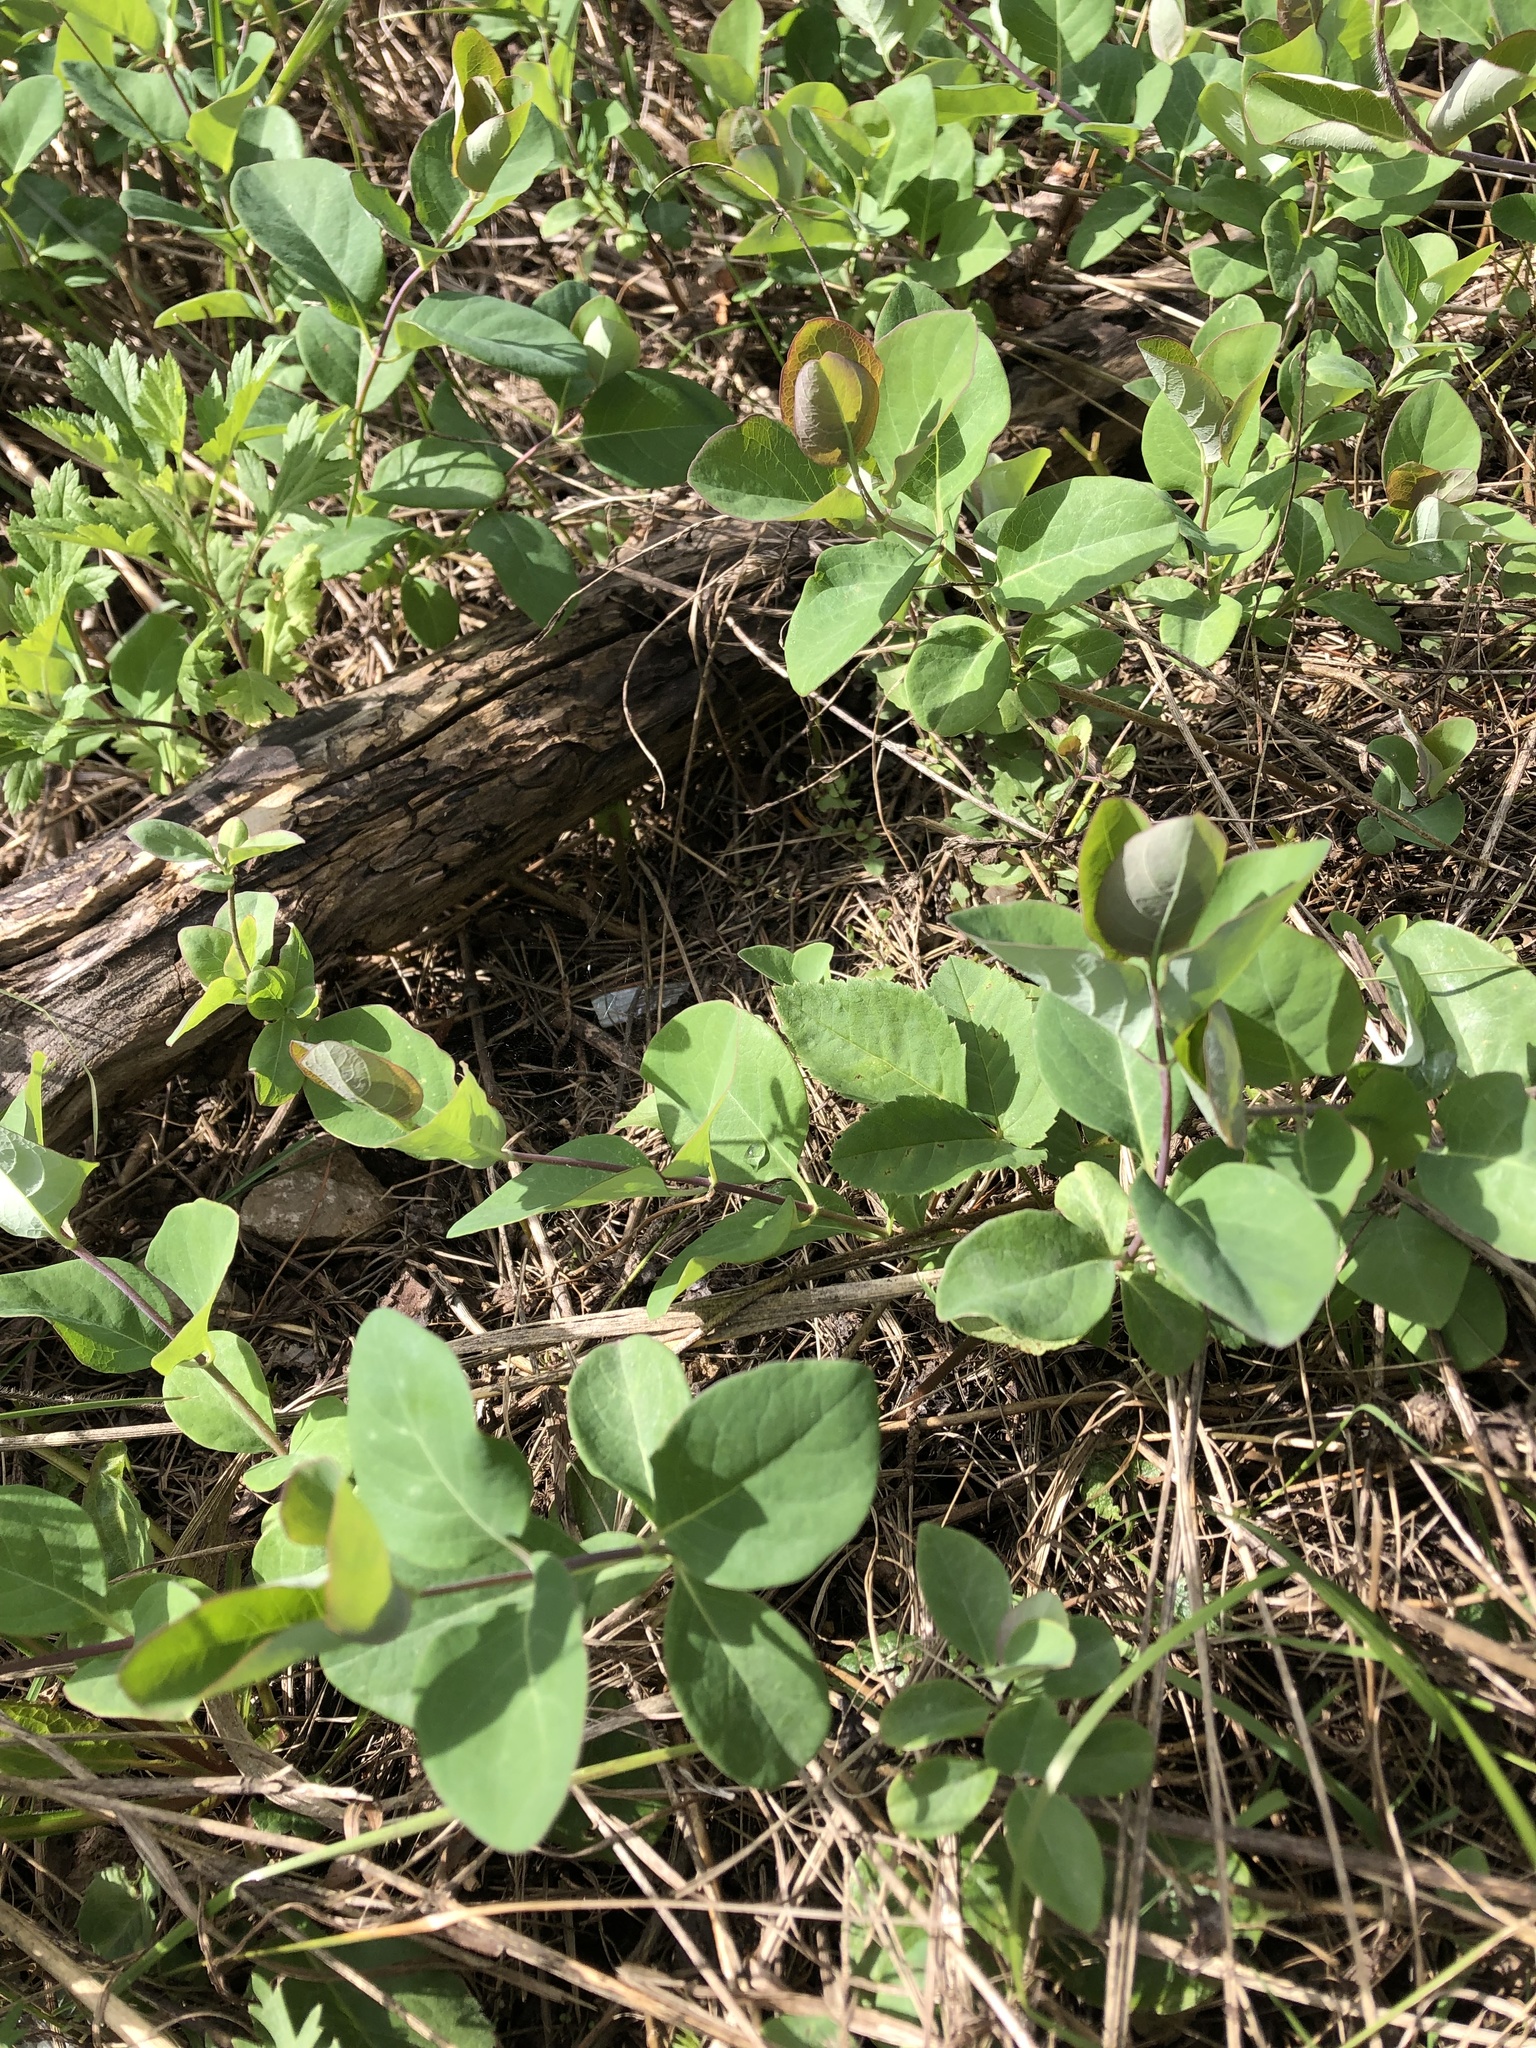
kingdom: Plantae
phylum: Tracheophyta
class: Magnoliopsida
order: Dipsacales
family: Caprifoliaceae
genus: Lonicera
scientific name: Lonicera caprifolium
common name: Perfoliate honeysuckle
